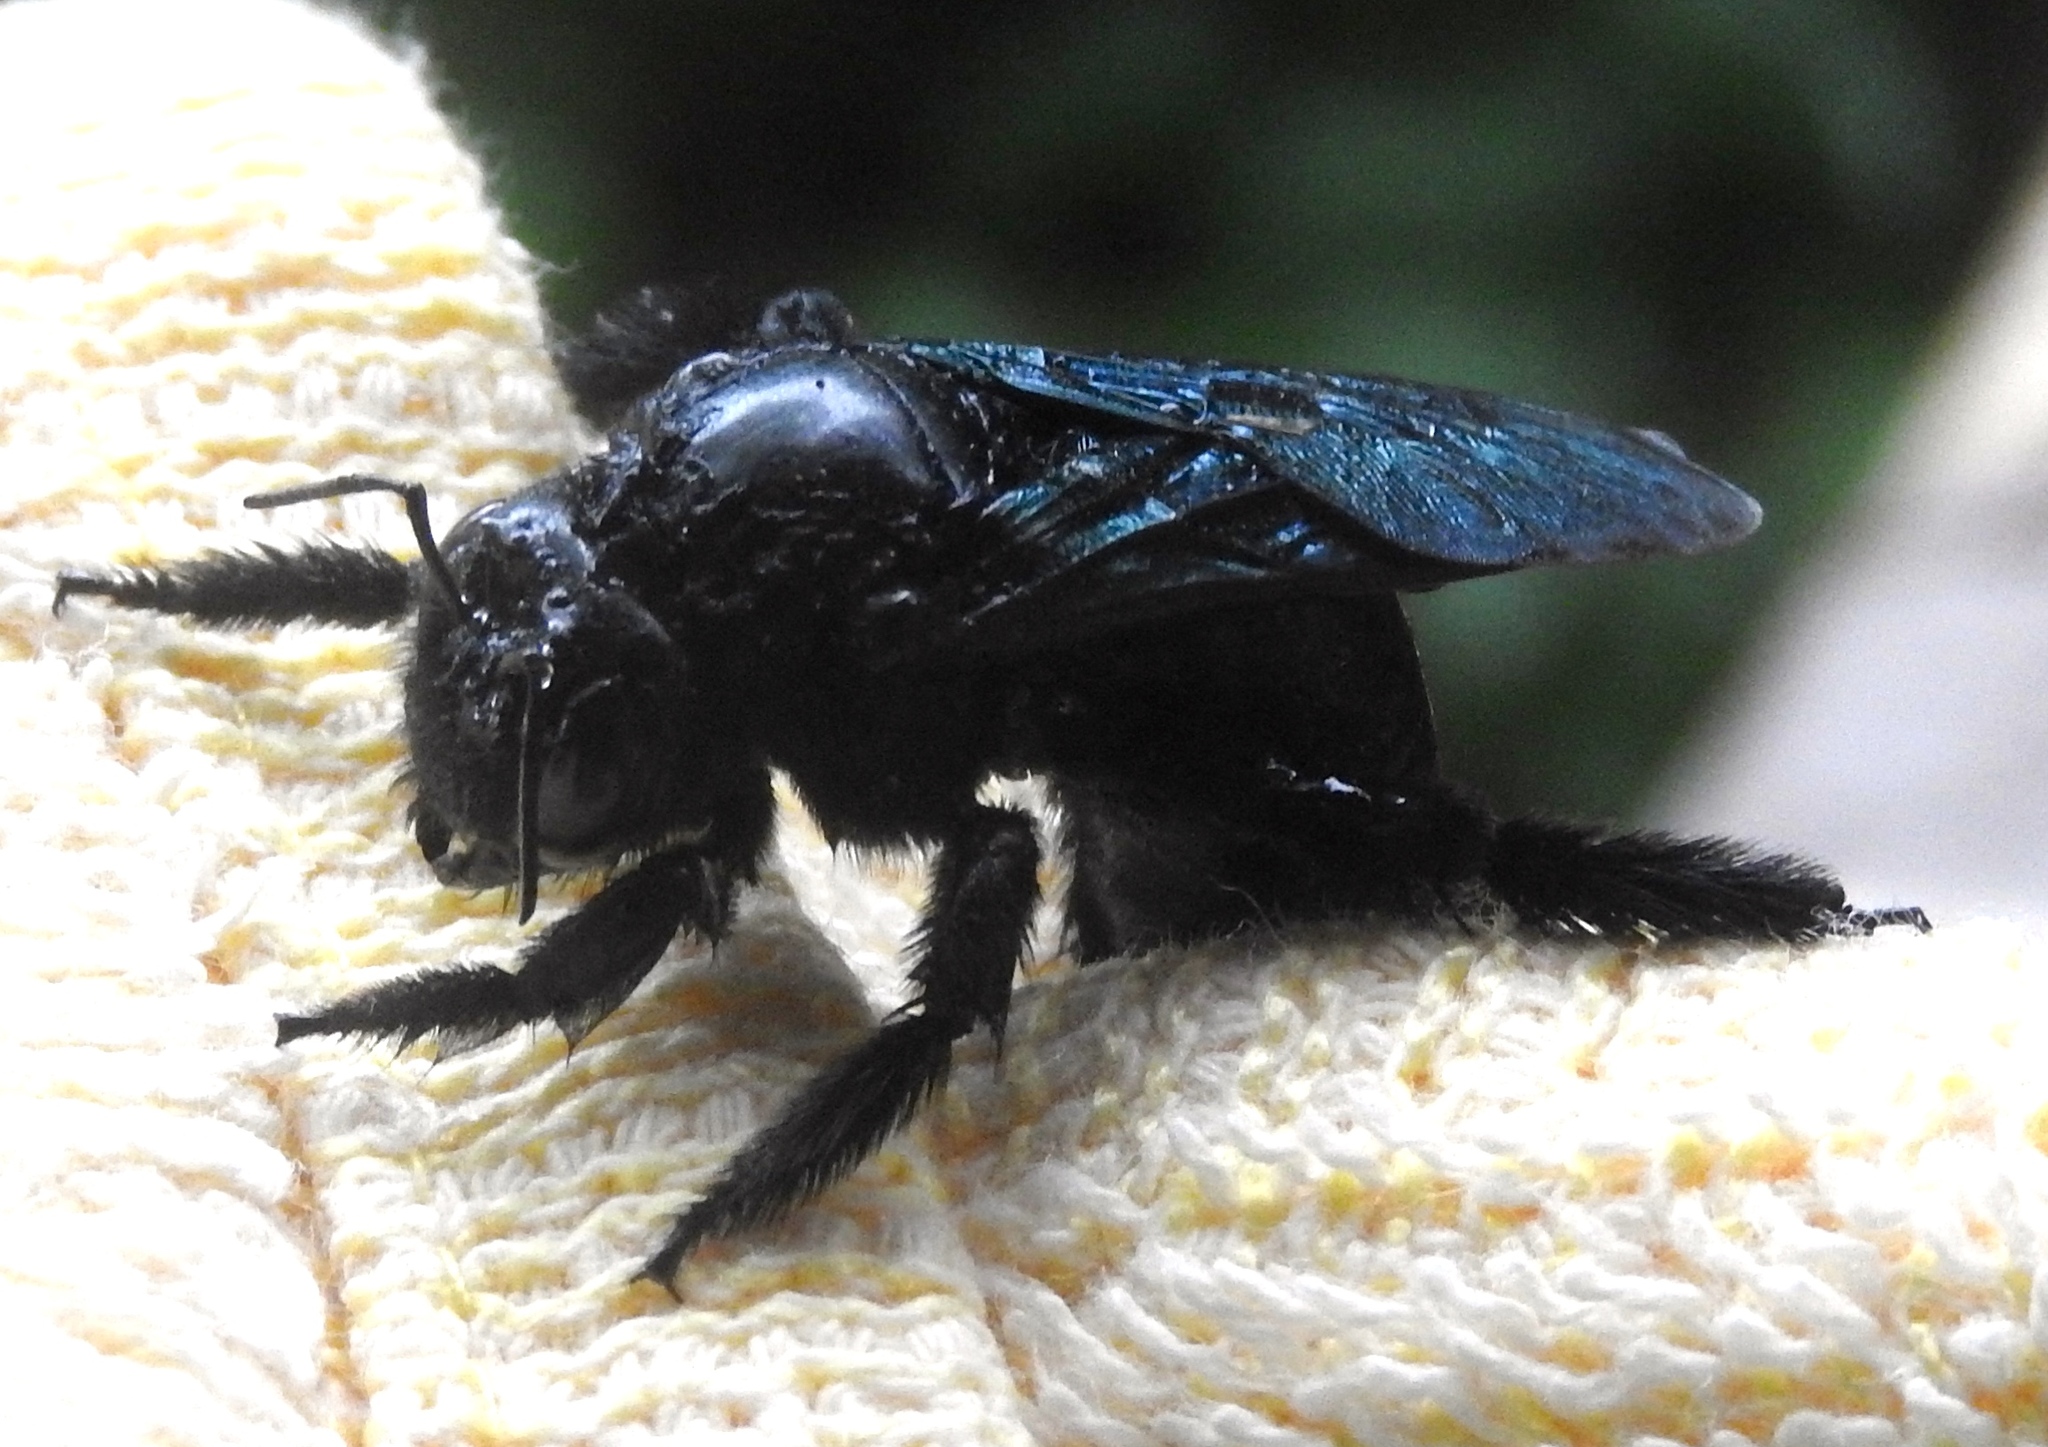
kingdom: Animalia
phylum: Arthropoda
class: Insecta
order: Hymenoptera
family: Apidae
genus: Xylocopa
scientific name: Xylocopa fimbriata
